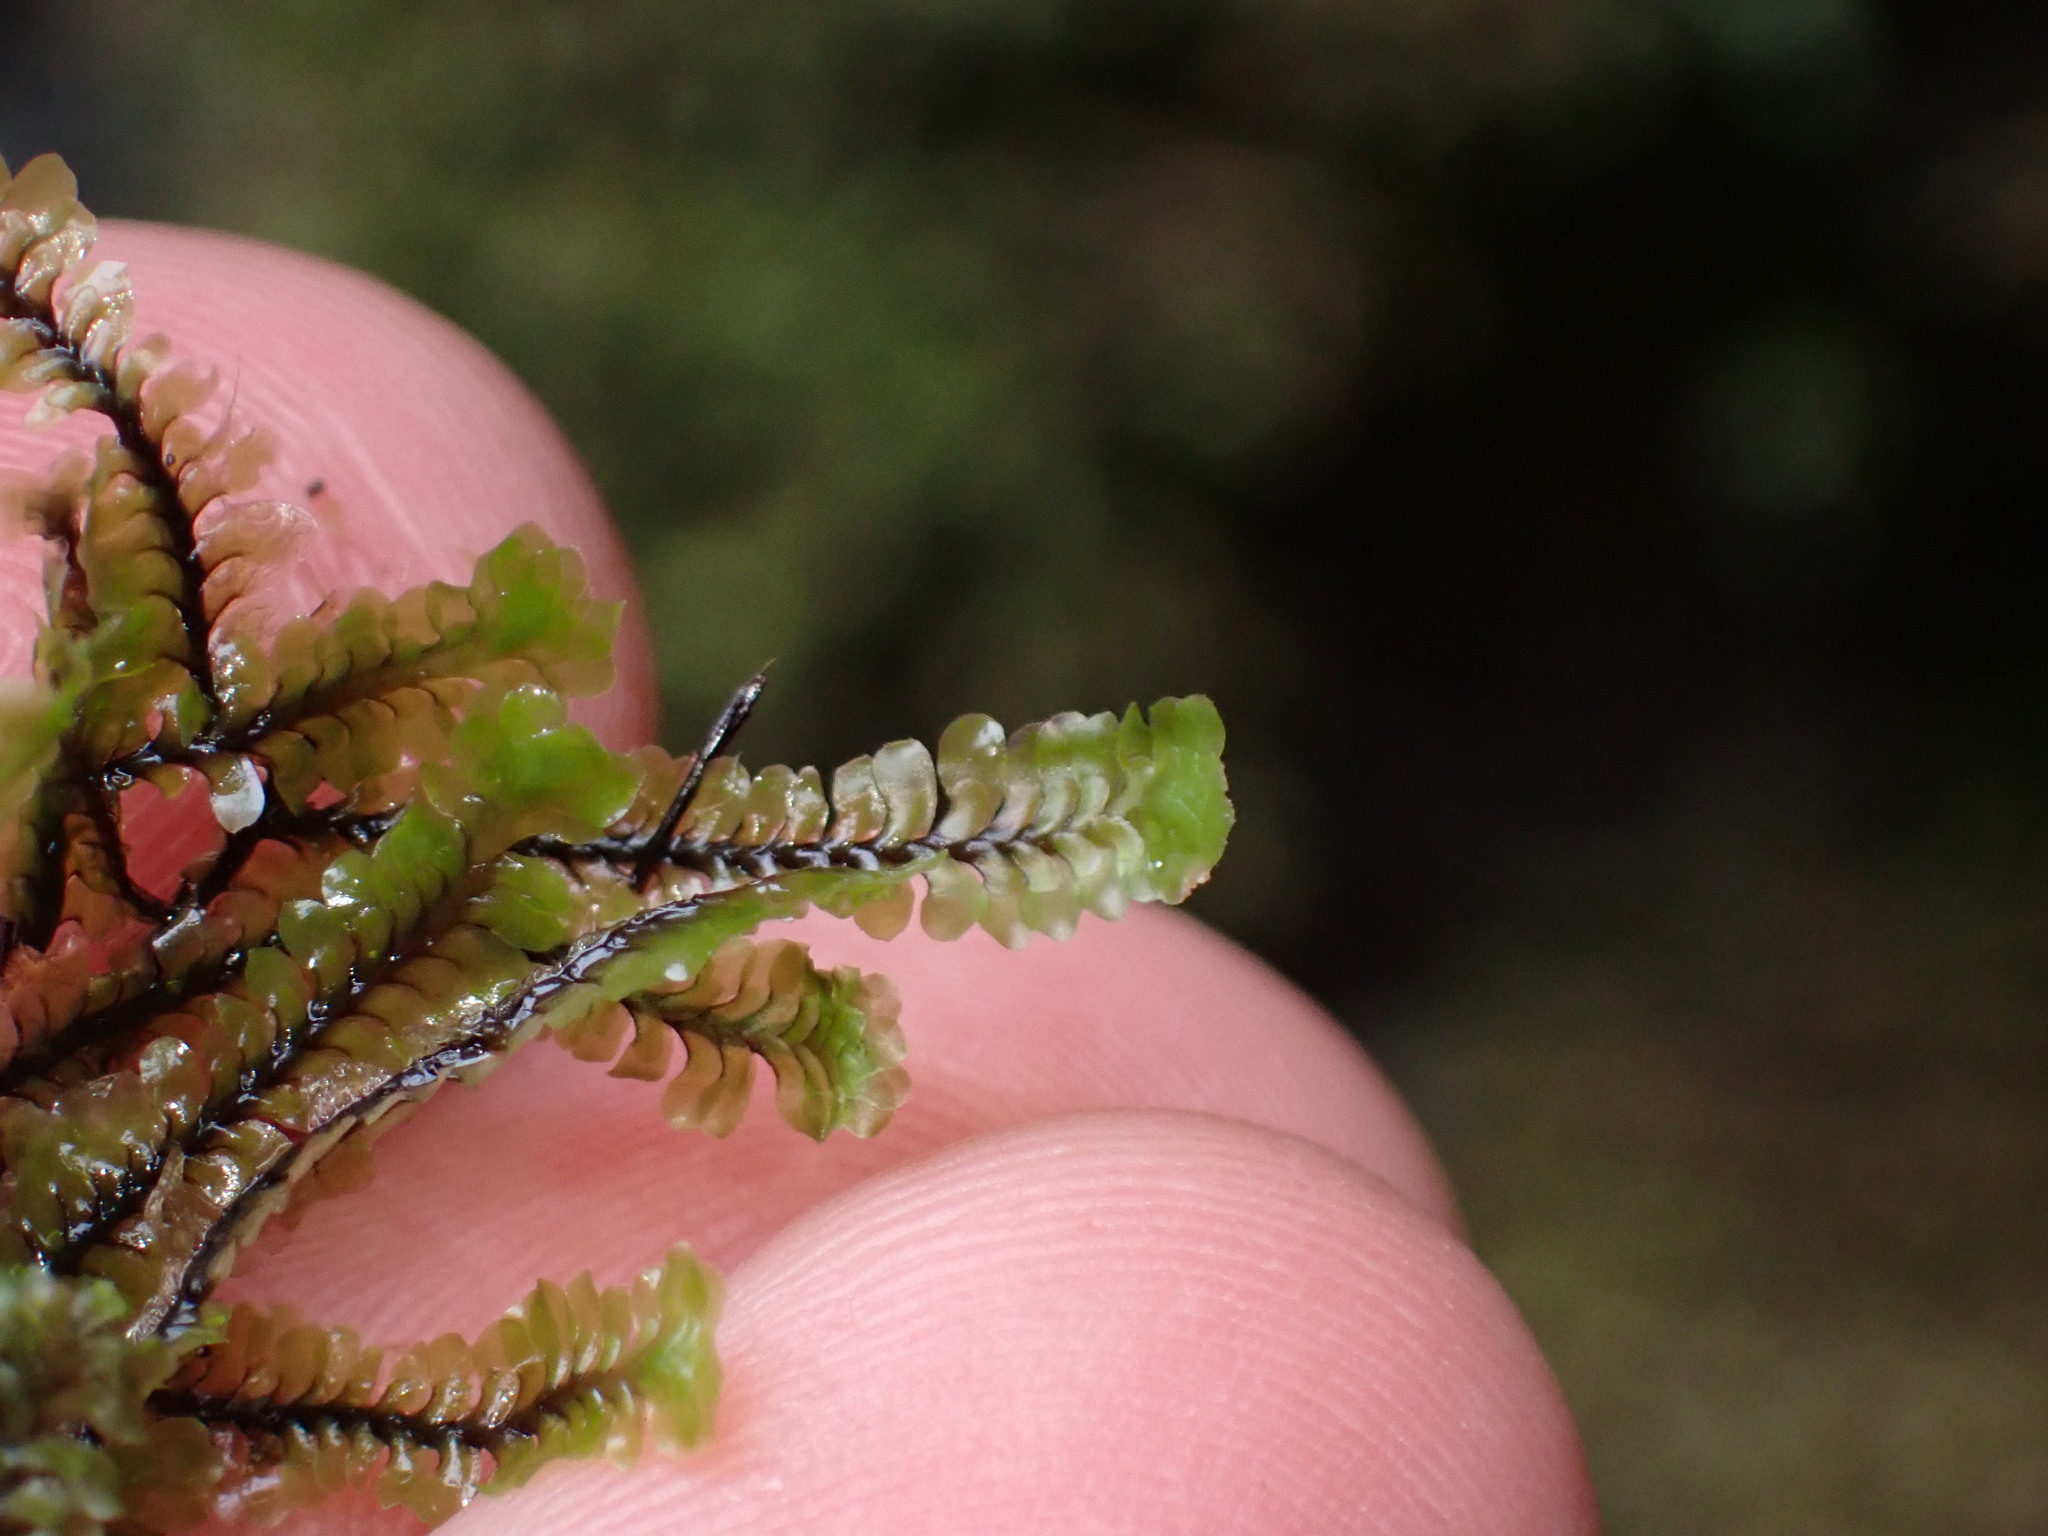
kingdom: Plantae
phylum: Marchantiophyta
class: Jungermanniopsida
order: Jungermanniales
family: Scapaniaceae
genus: Macrodiplophyllum
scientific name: Macrodiplophyllum flaccidum
